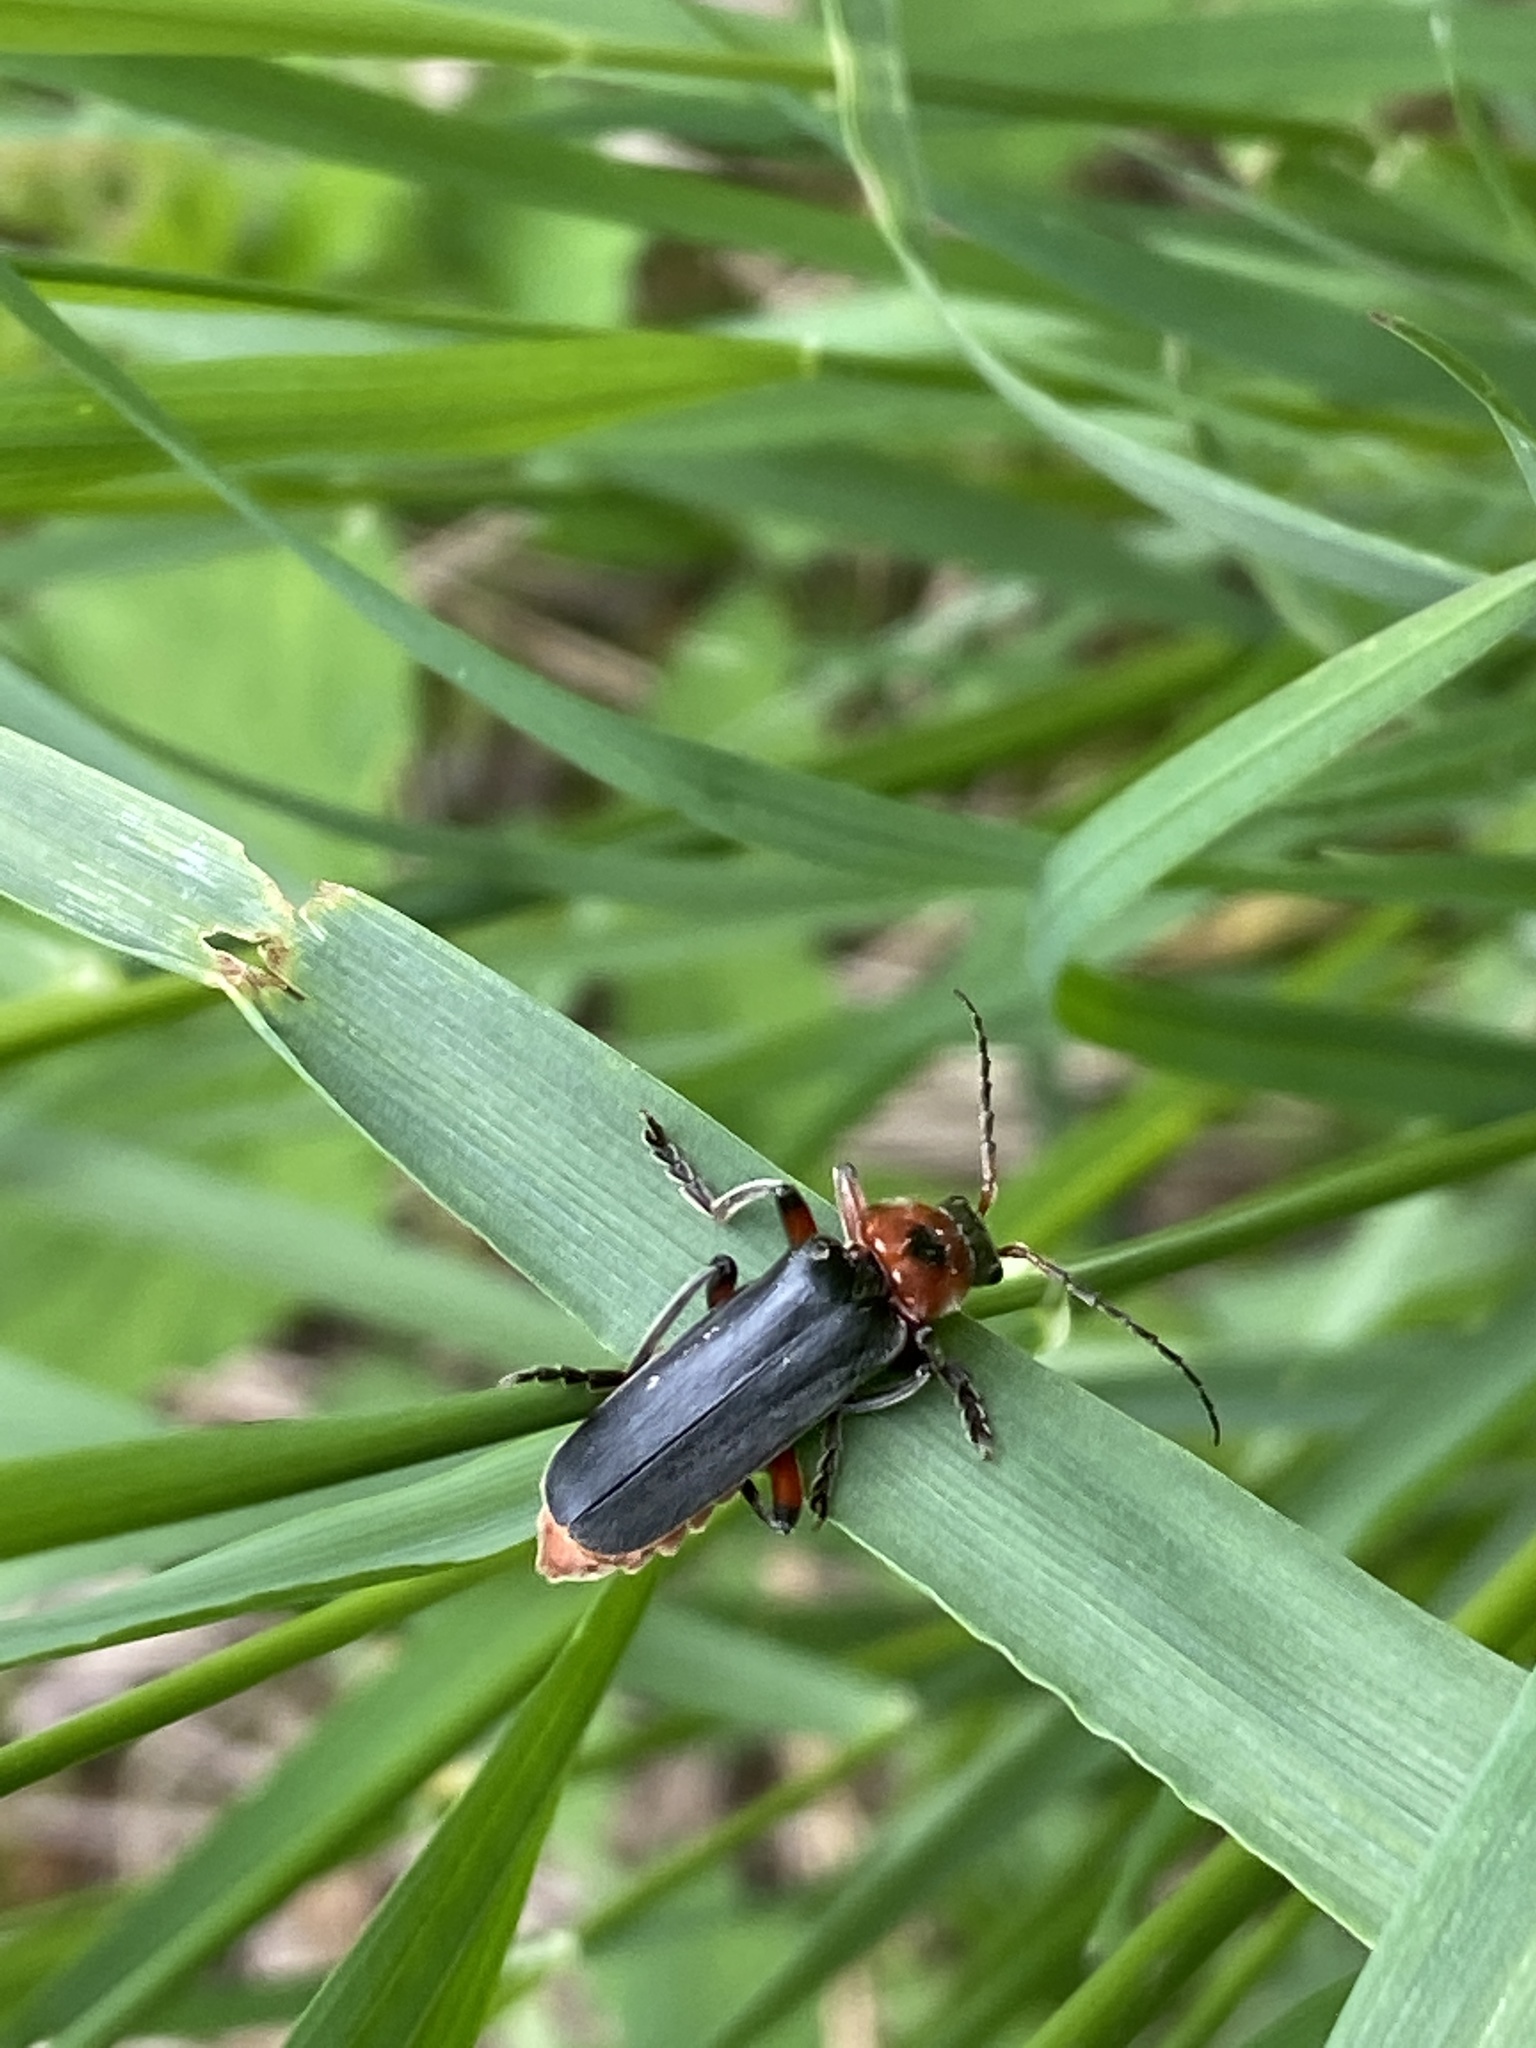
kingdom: Animalia
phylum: Arthropoda
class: Insecta
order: Coleoptera
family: Cantharidae
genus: Cantharis
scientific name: Cantharis rustica
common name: Soldier beetle
